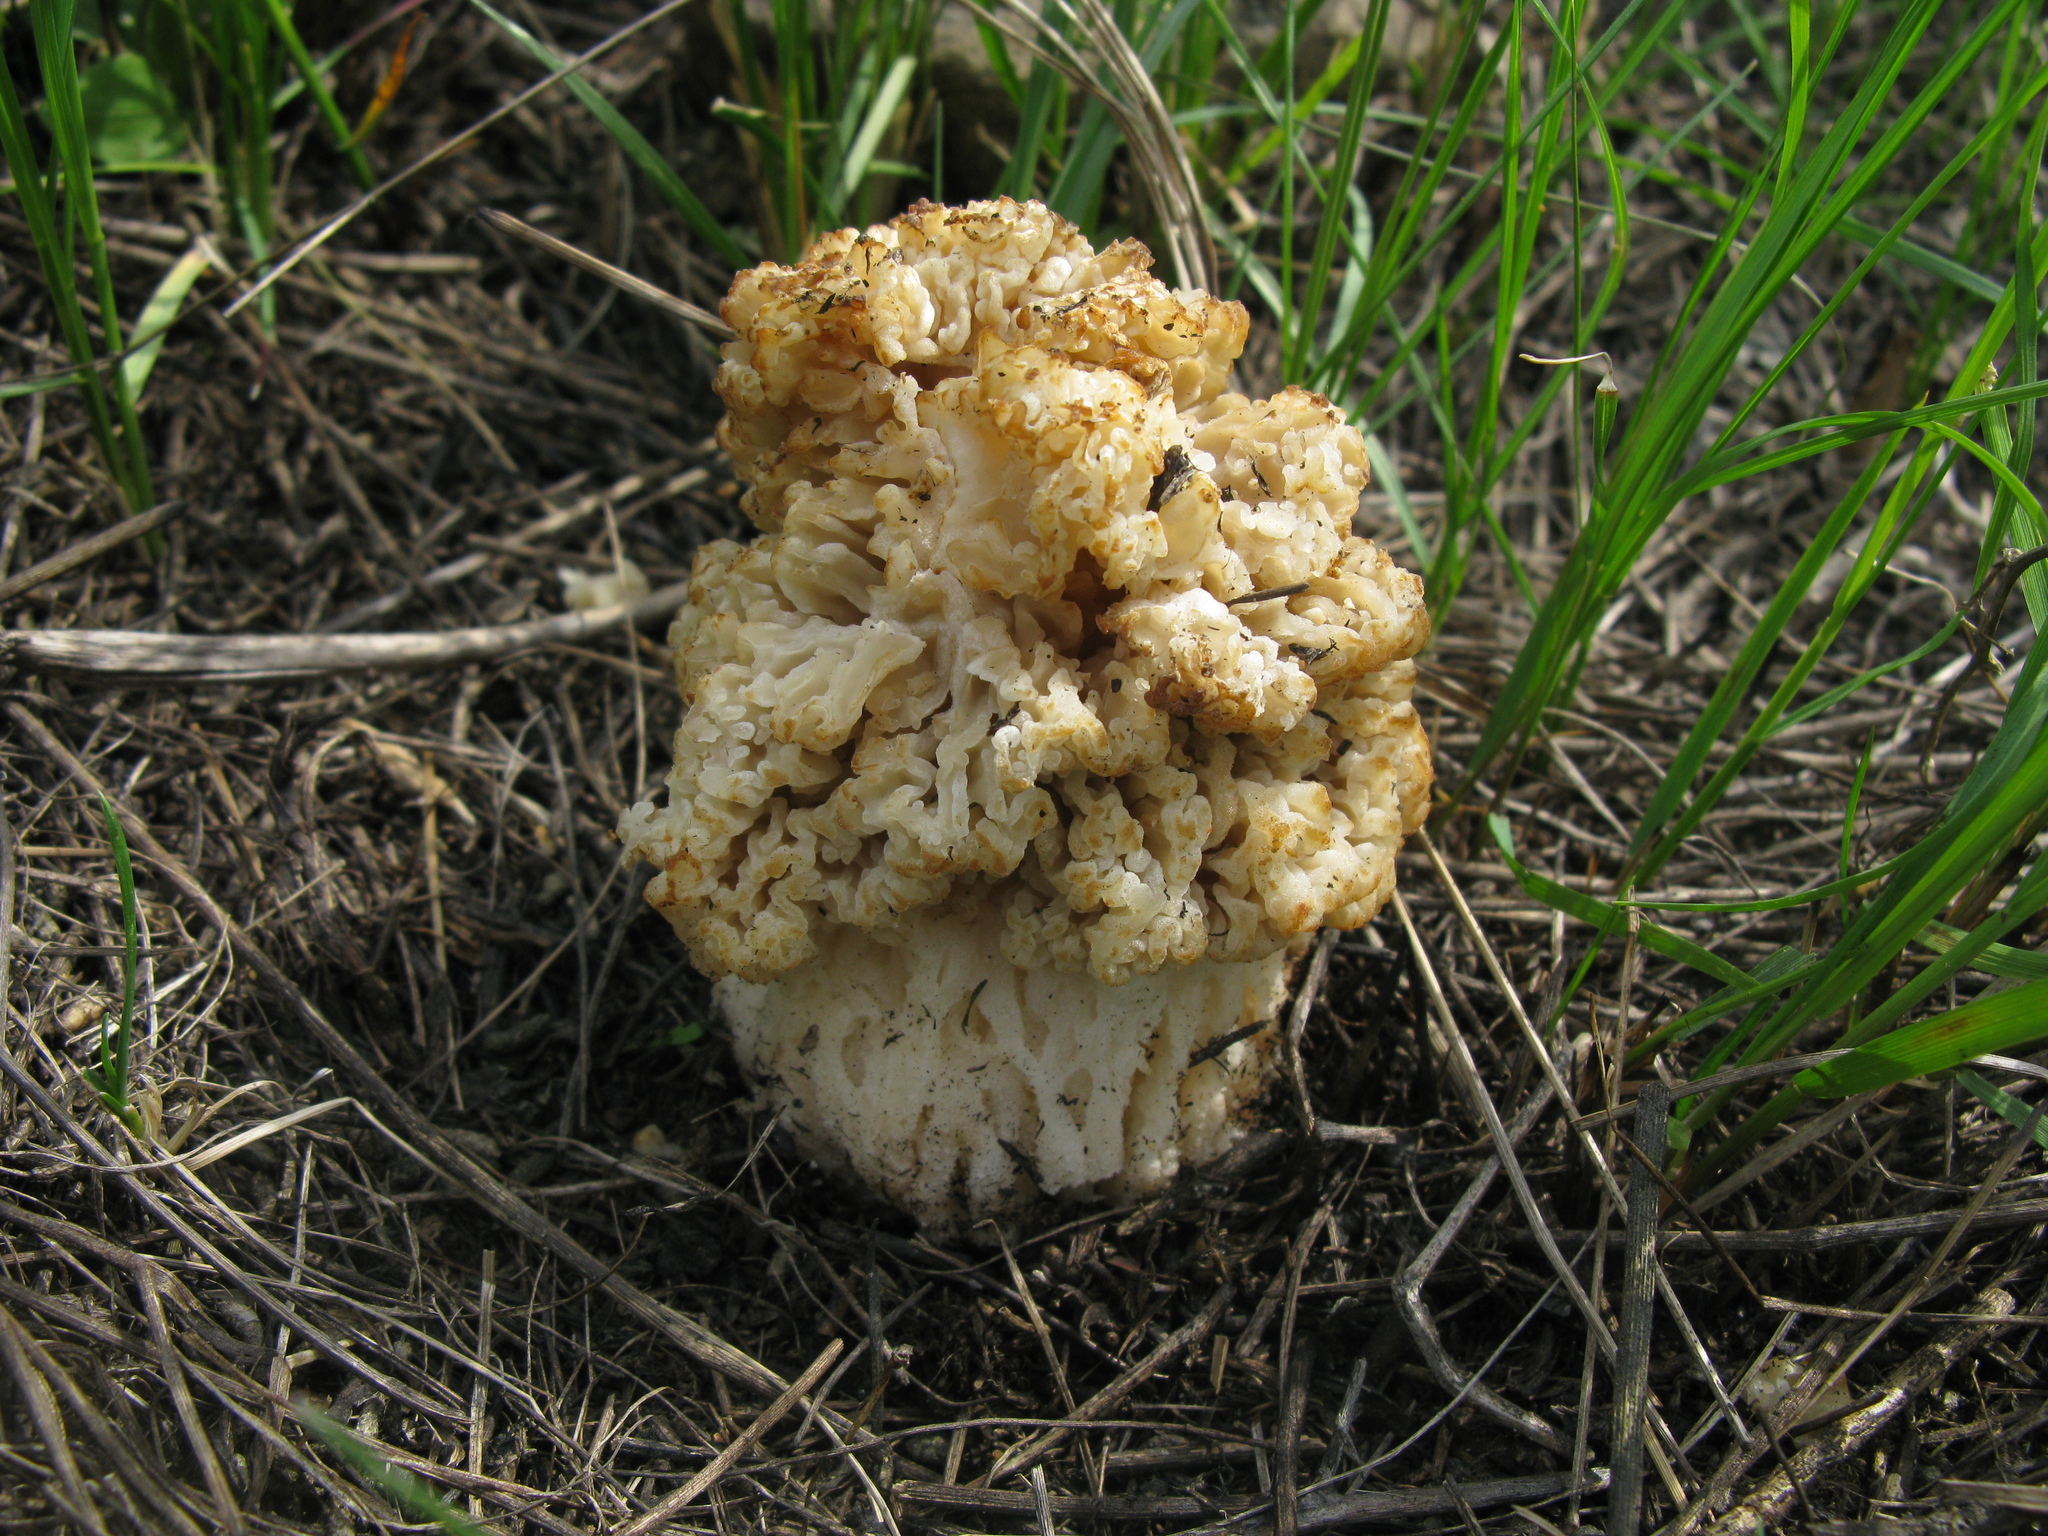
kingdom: Fungi
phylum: Ascomycota
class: Pezizomycetes
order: Pezizales
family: Morchellaceae
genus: Morchella
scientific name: Morchella steppicola
